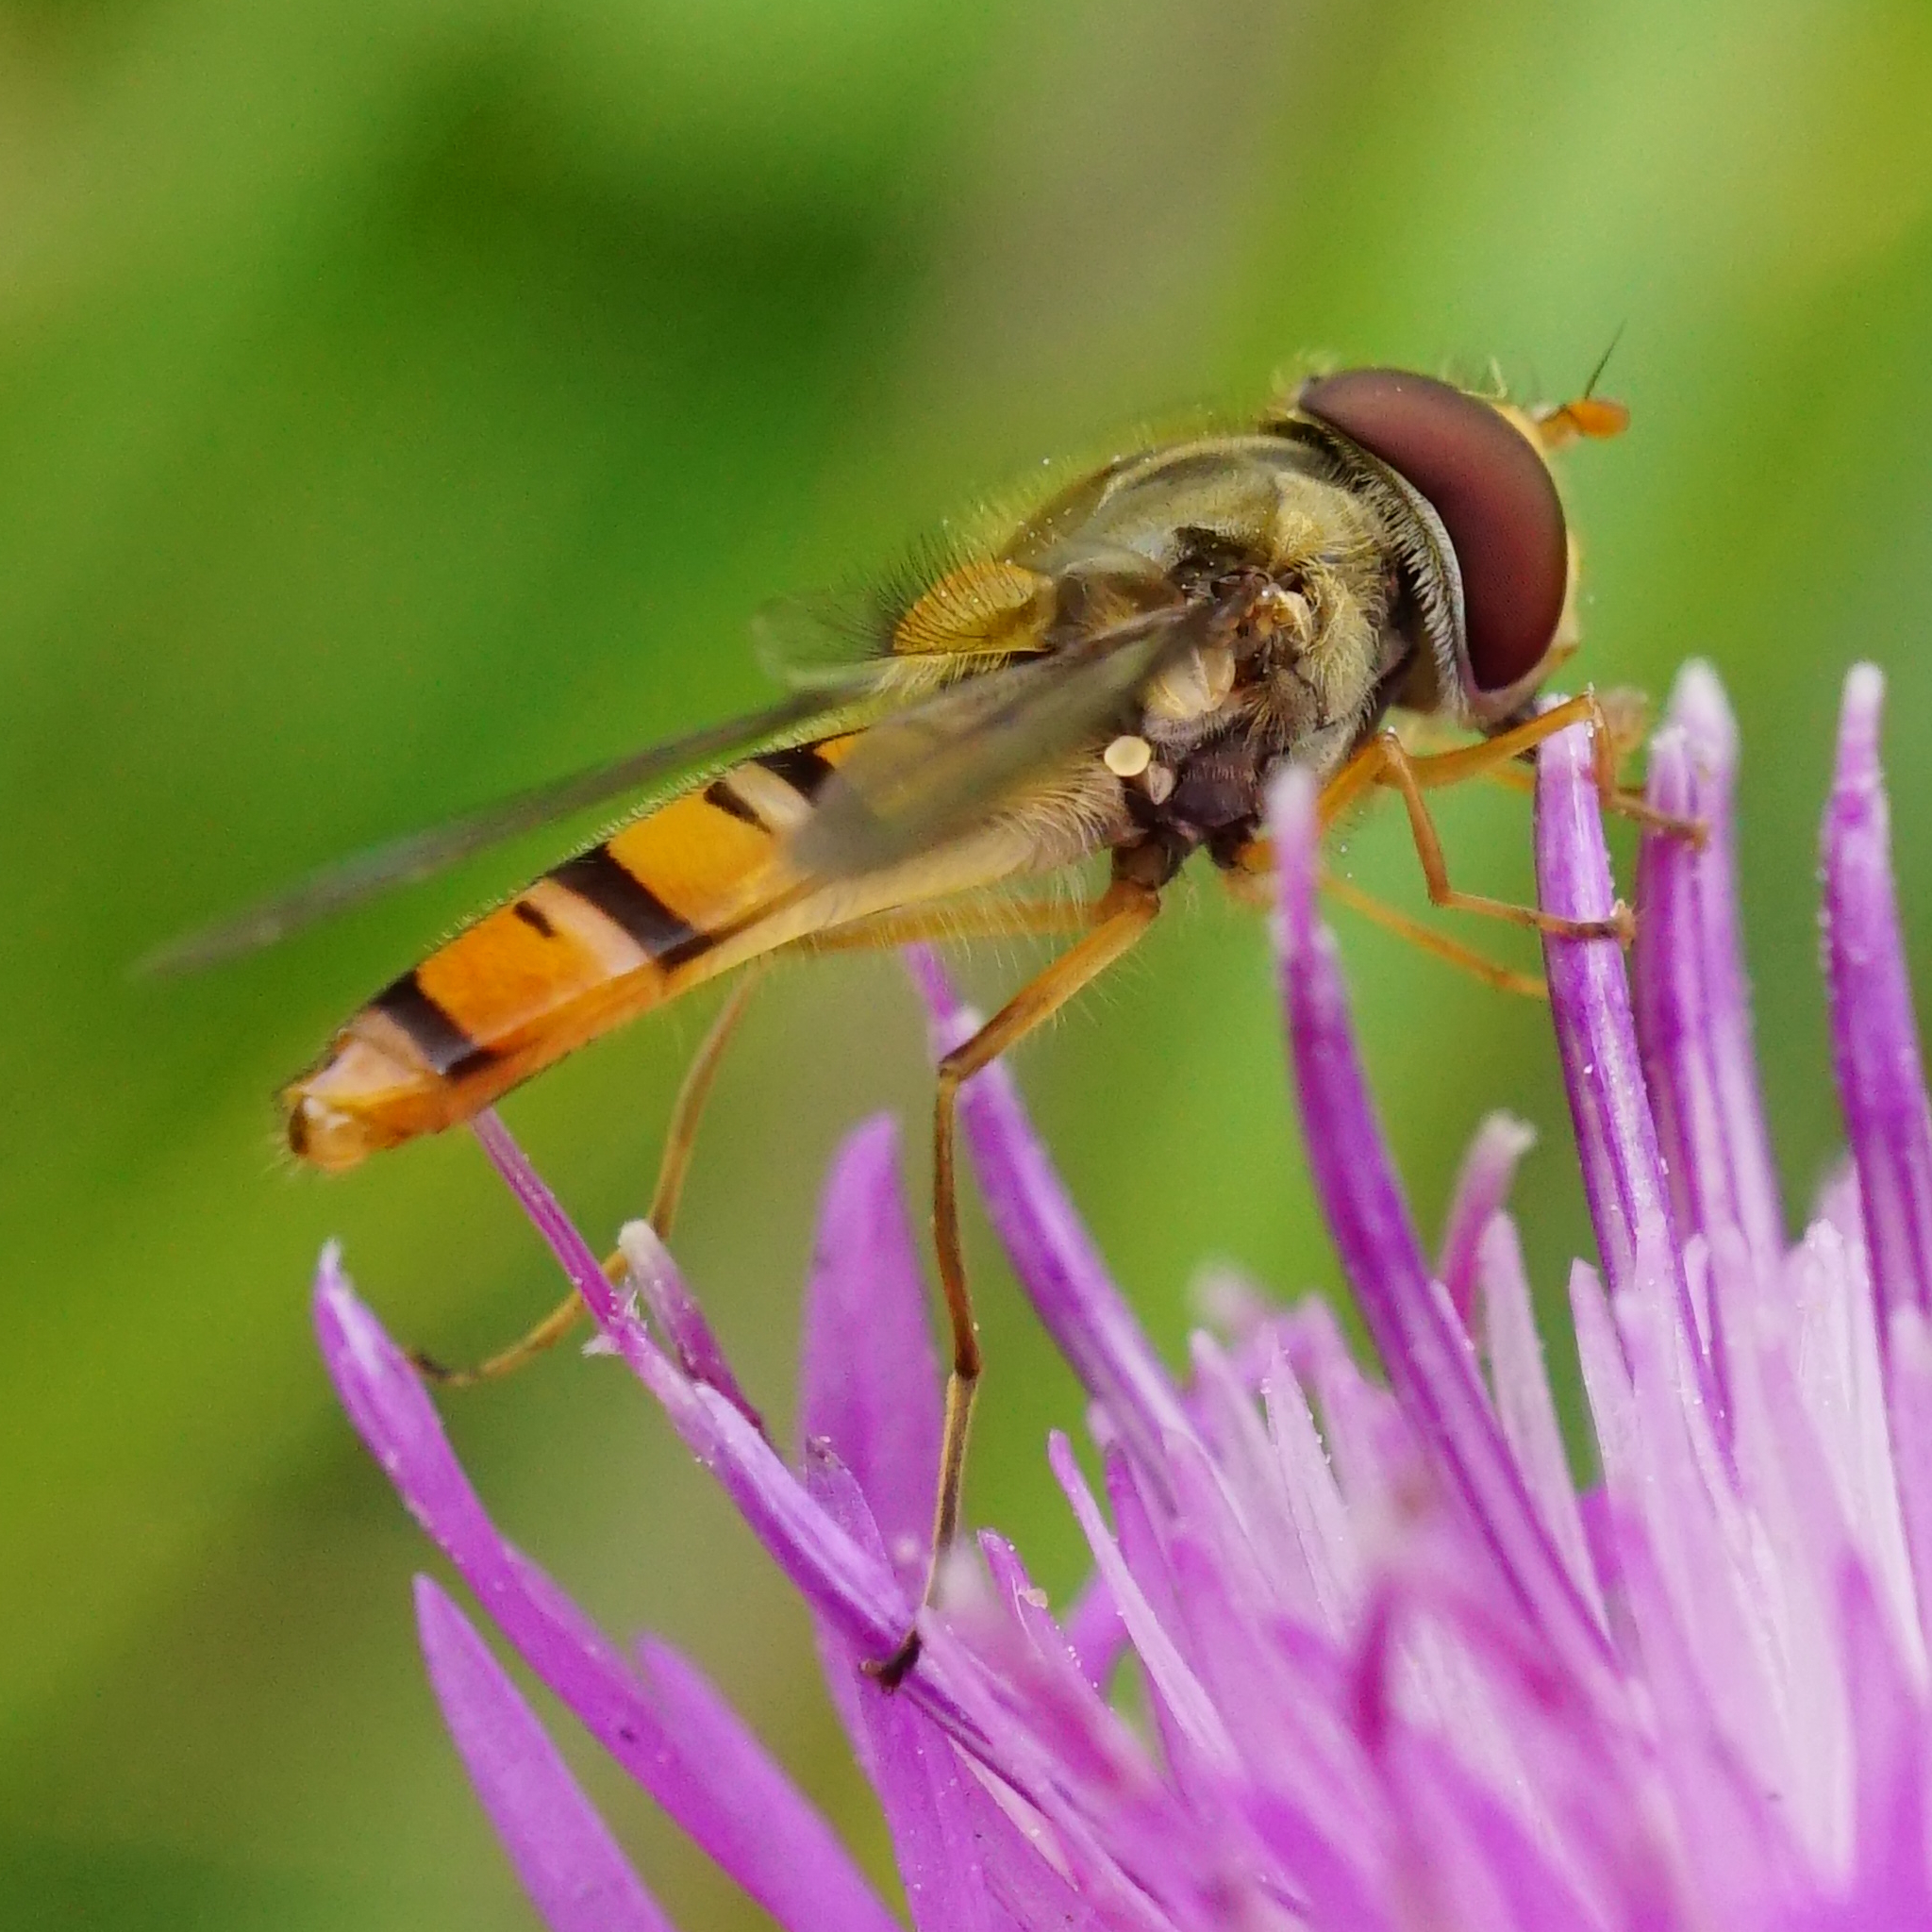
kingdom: Animalia
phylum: Arthropoda
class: Insecta
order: Diptera
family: Syrphidae
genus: Episyrphus
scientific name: Episyrphus balteatus
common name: Marmalade hoverfly
